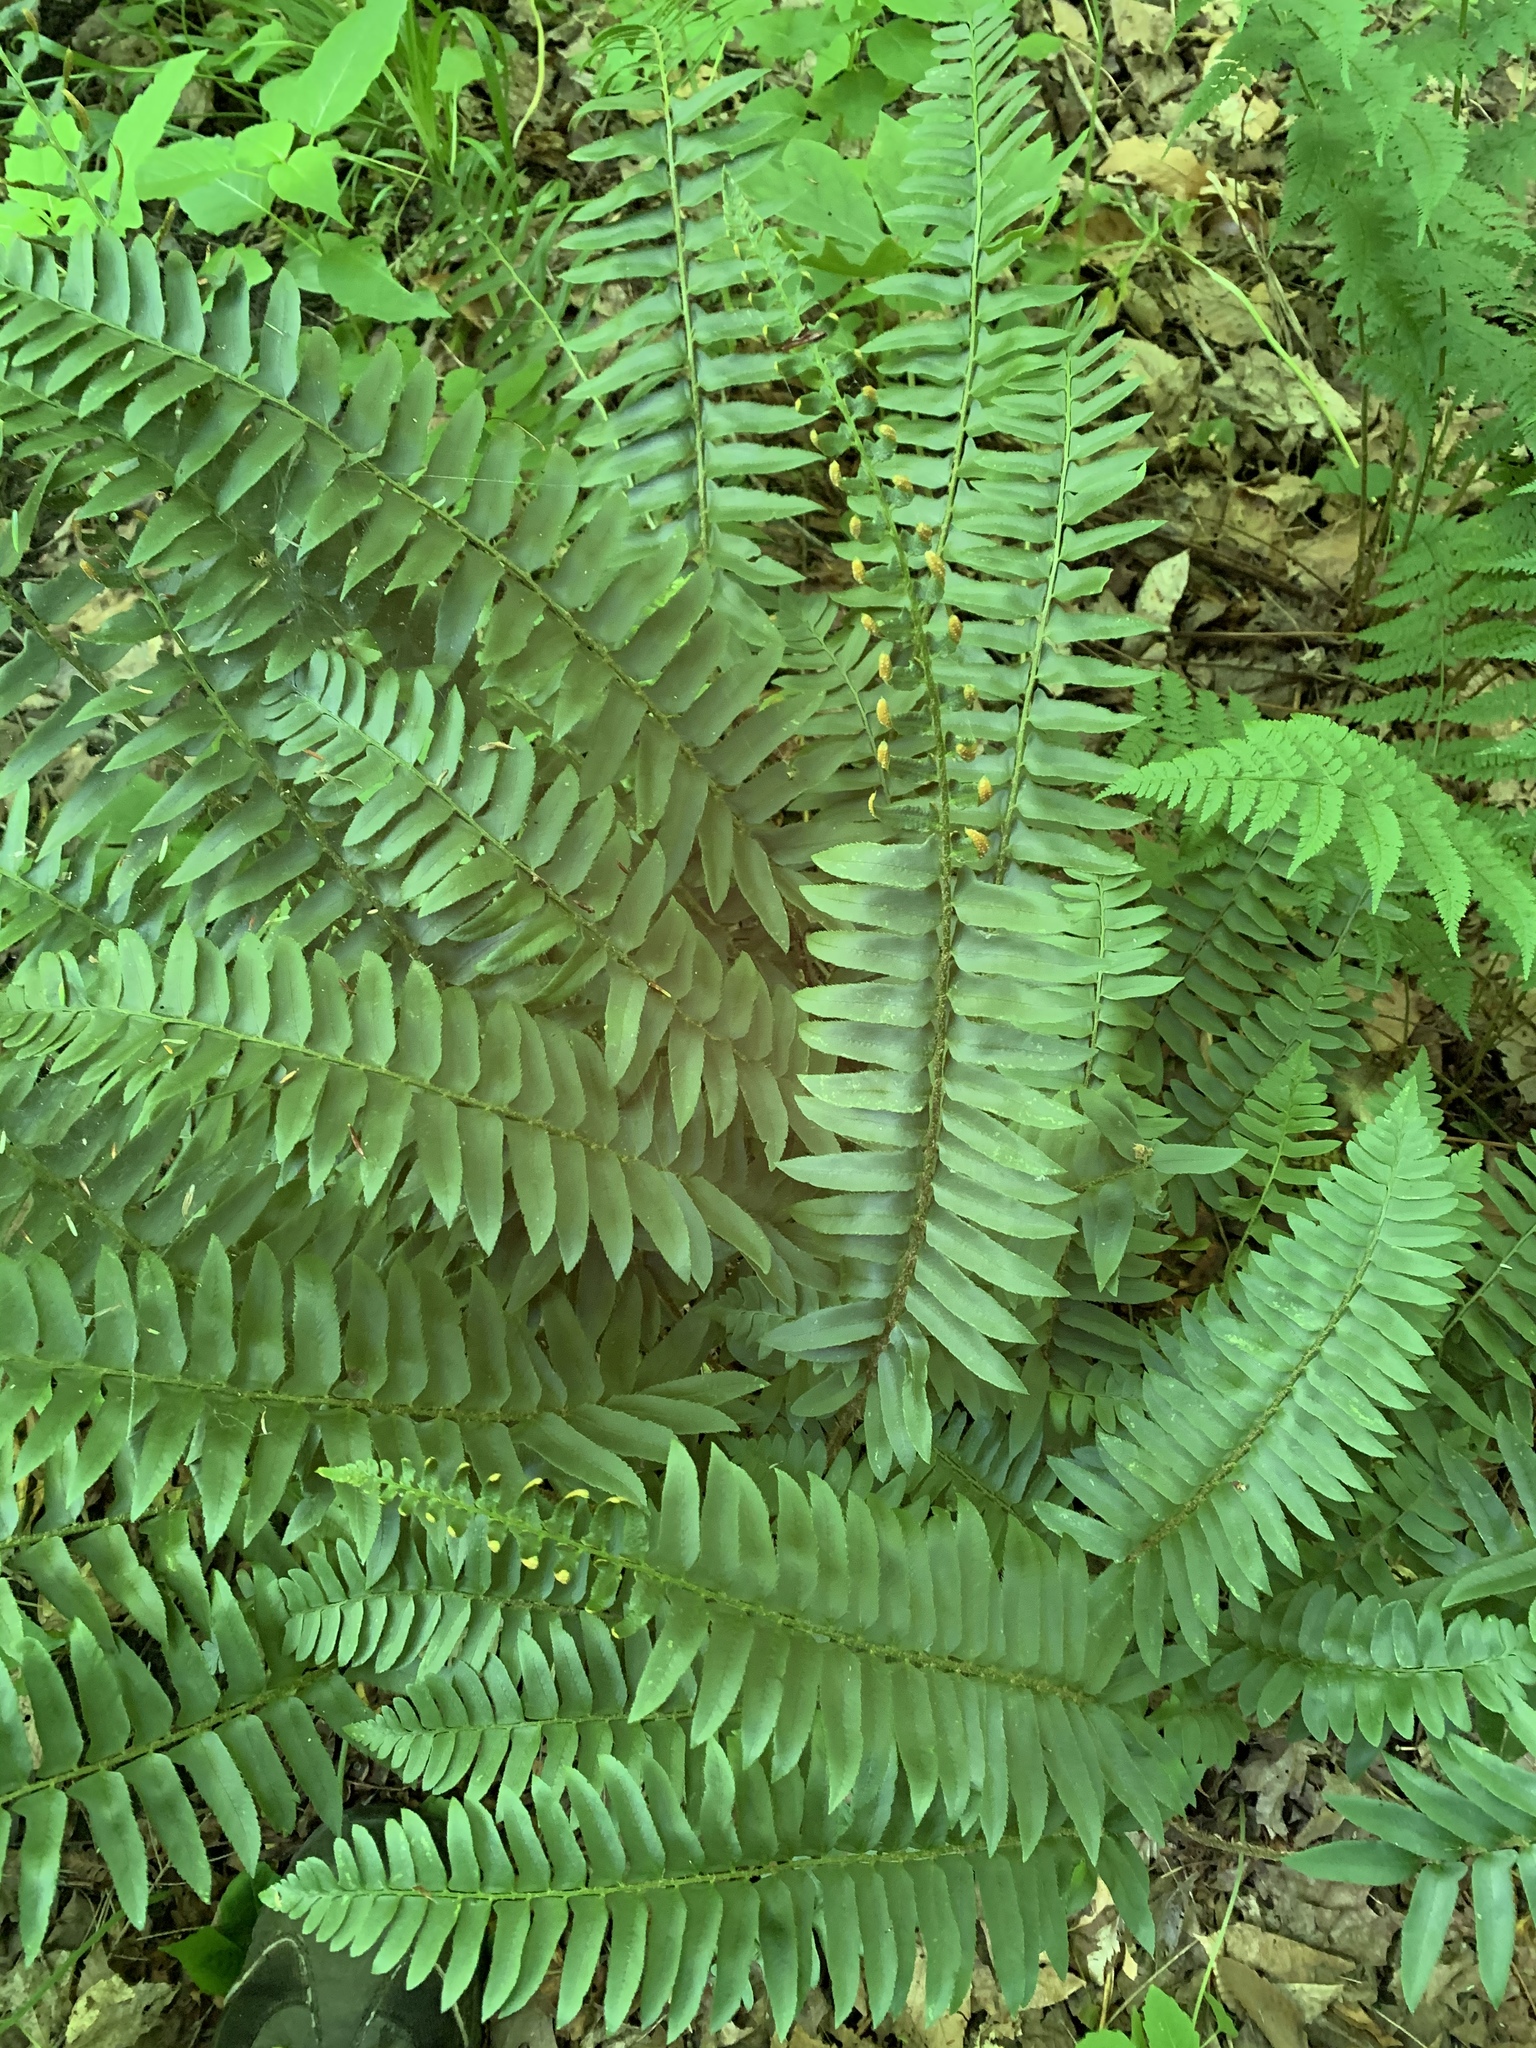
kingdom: Plantae
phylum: Tracheophyta
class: Polypodiopsida
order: Polypodiales
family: Dryopteridaceae
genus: Polystichum
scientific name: Polystichum acrostichoides
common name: Christmas fern
